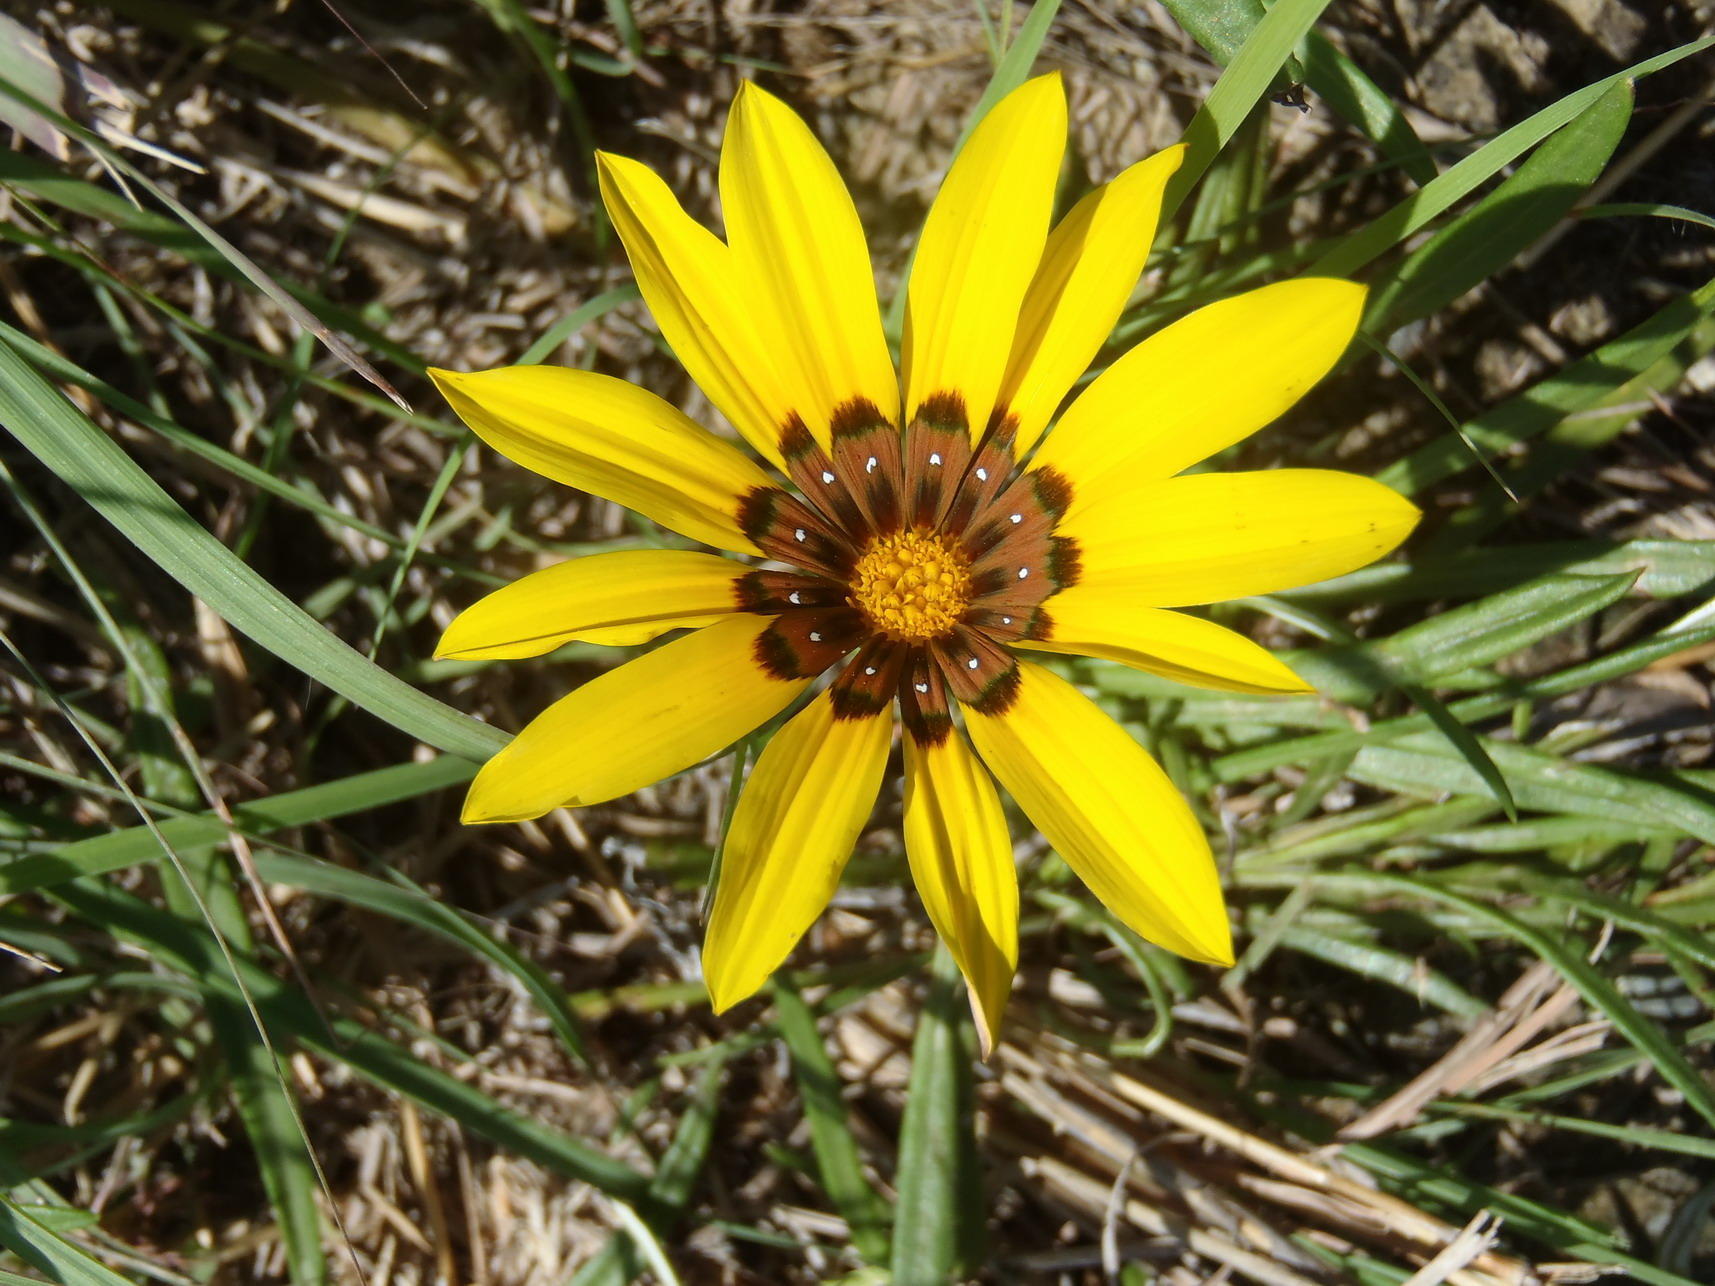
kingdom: Plantae
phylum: Tracheophyta
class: Magnoliopsida
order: Asterales
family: Asteraceae
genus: Gazania
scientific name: Gazania krebsiana
